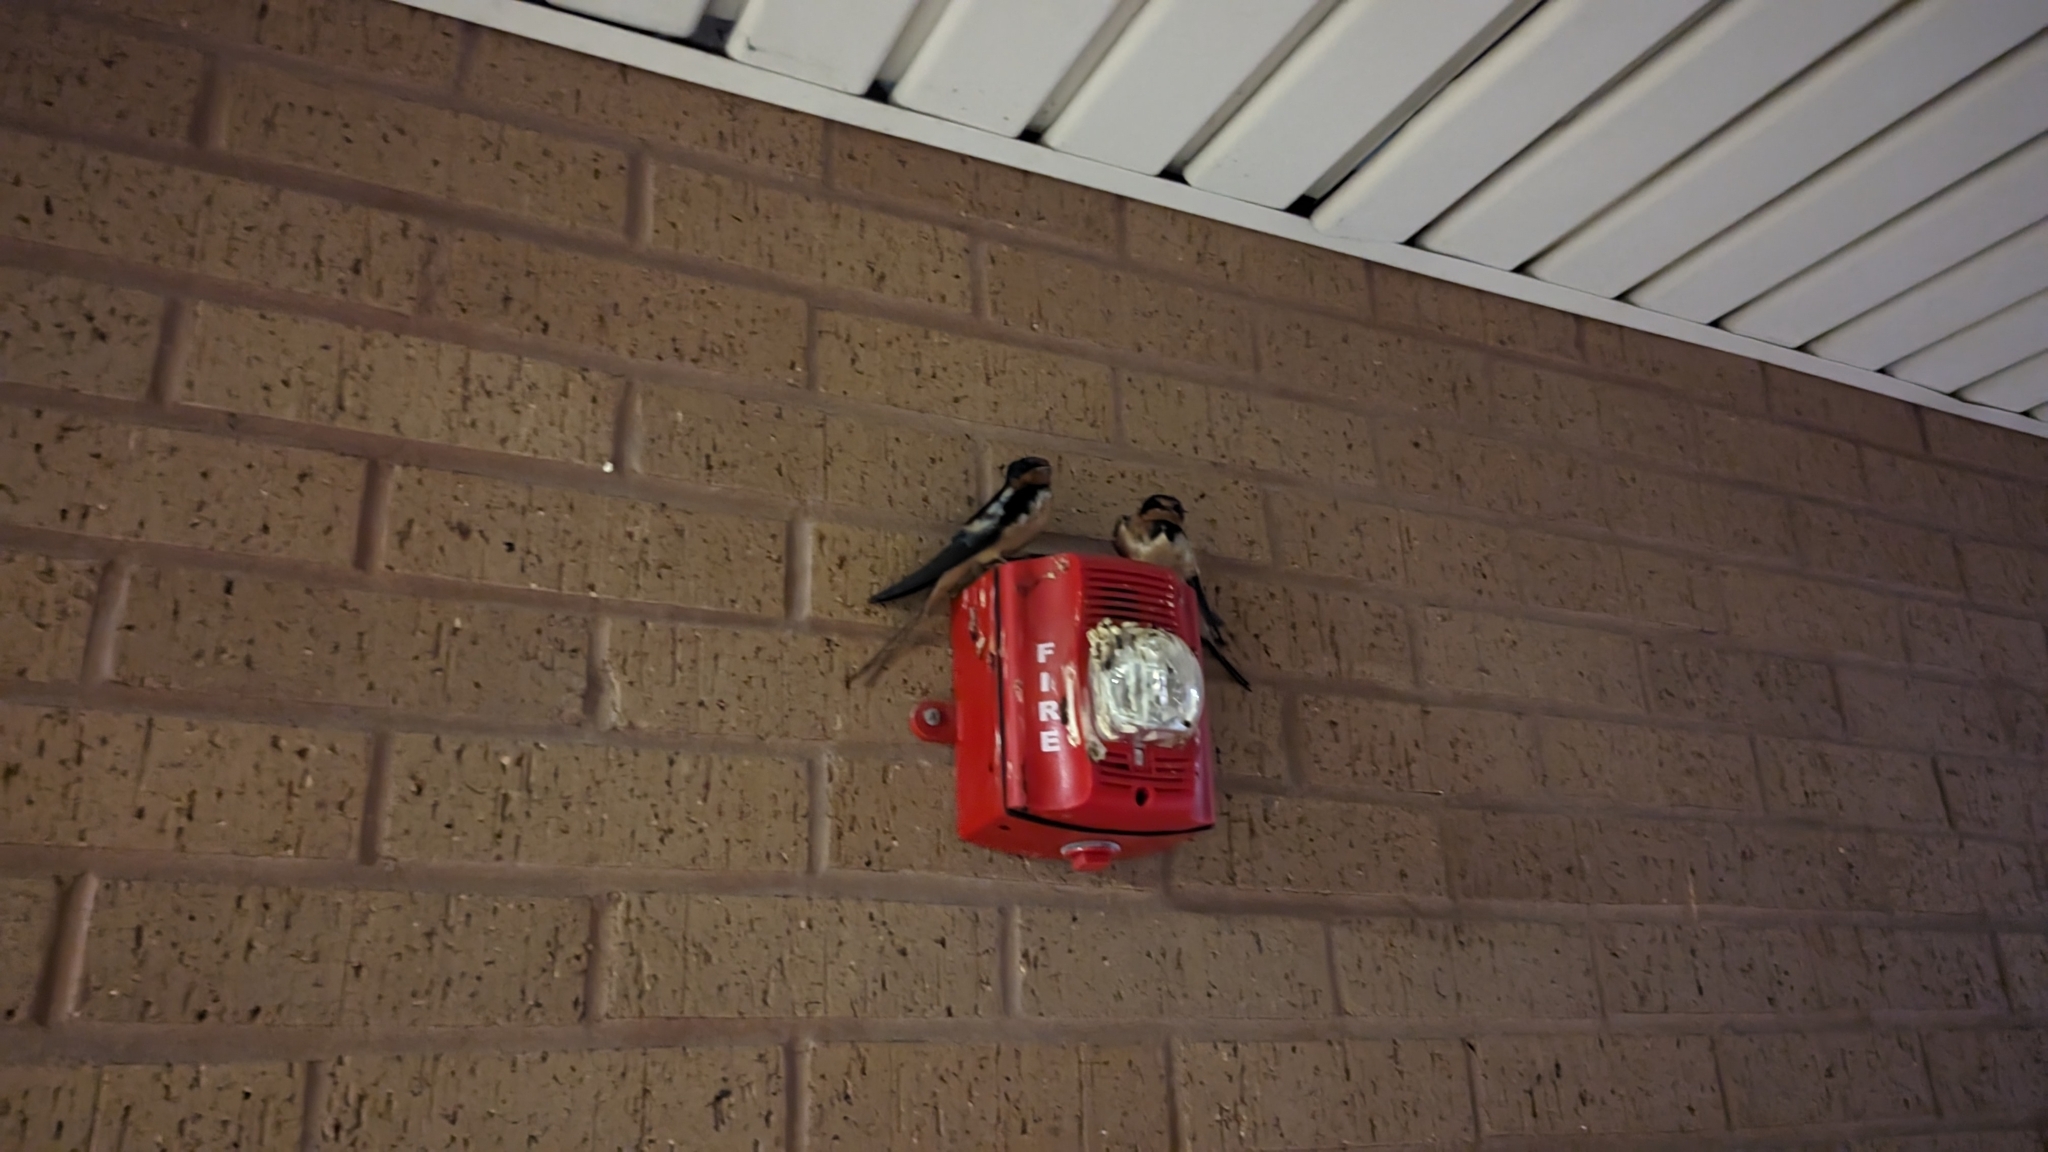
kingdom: Animalia
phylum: Chordata
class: Aves
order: Passeriformes
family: Hirundinidae
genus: Hirundo
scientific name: Hirundo rustica
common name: Barn swallow
